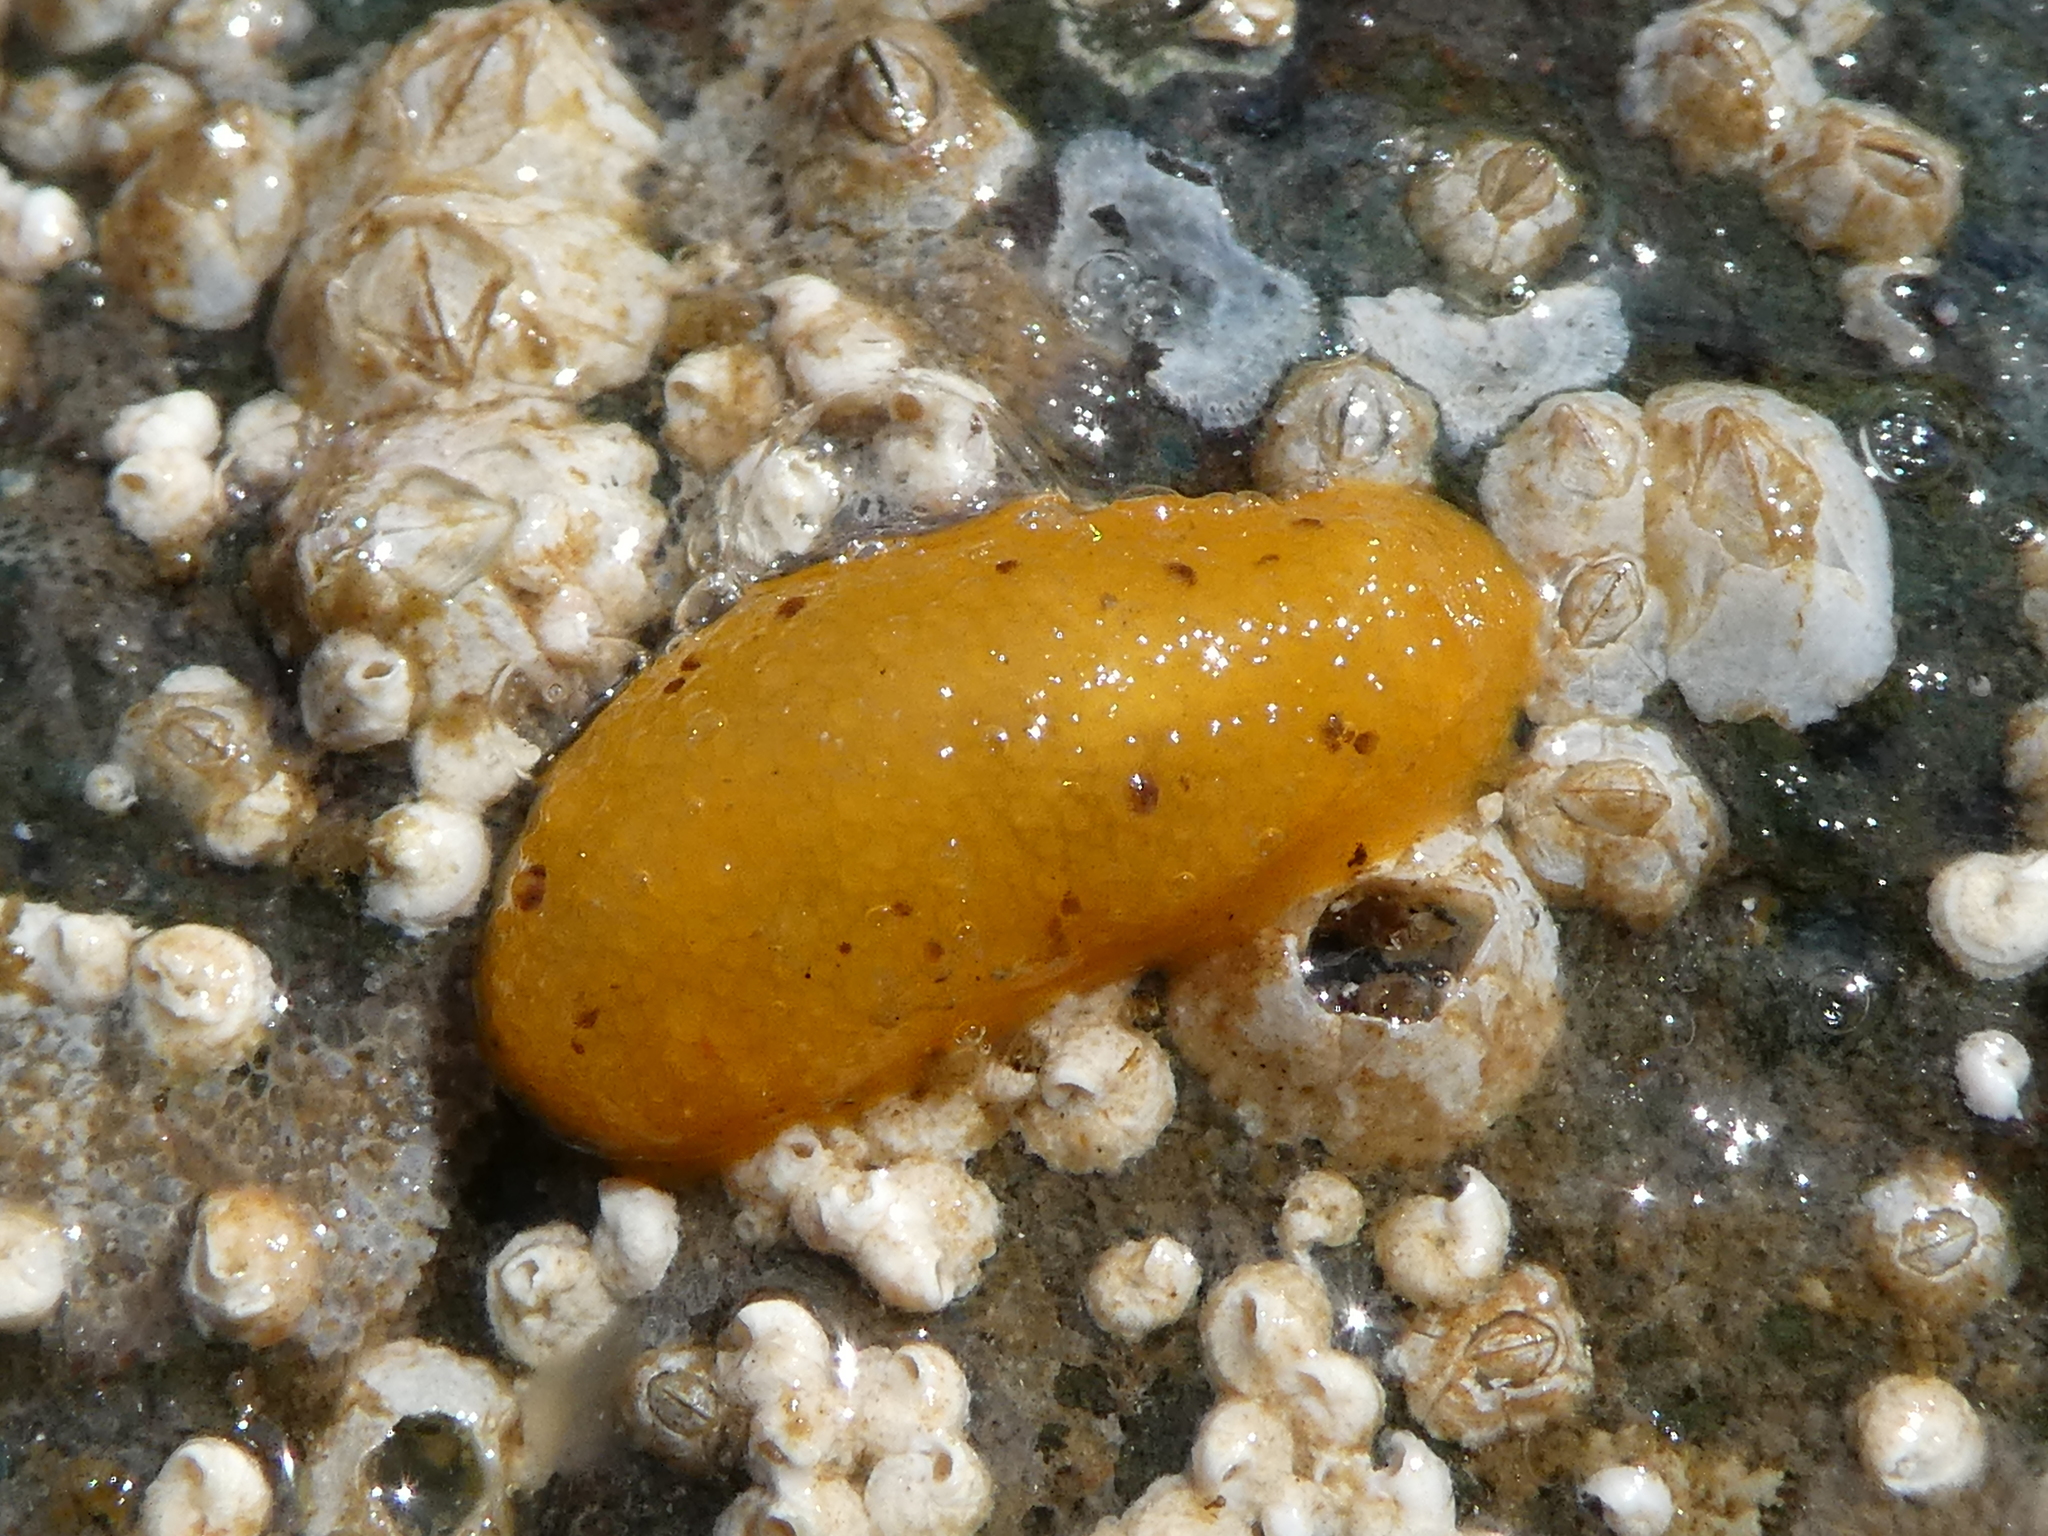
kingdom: Animalia
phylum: Mollusca
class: Gastropoda
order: Nudibranchia
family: Dorididae
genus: Doris
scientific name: Doris montereyensis
